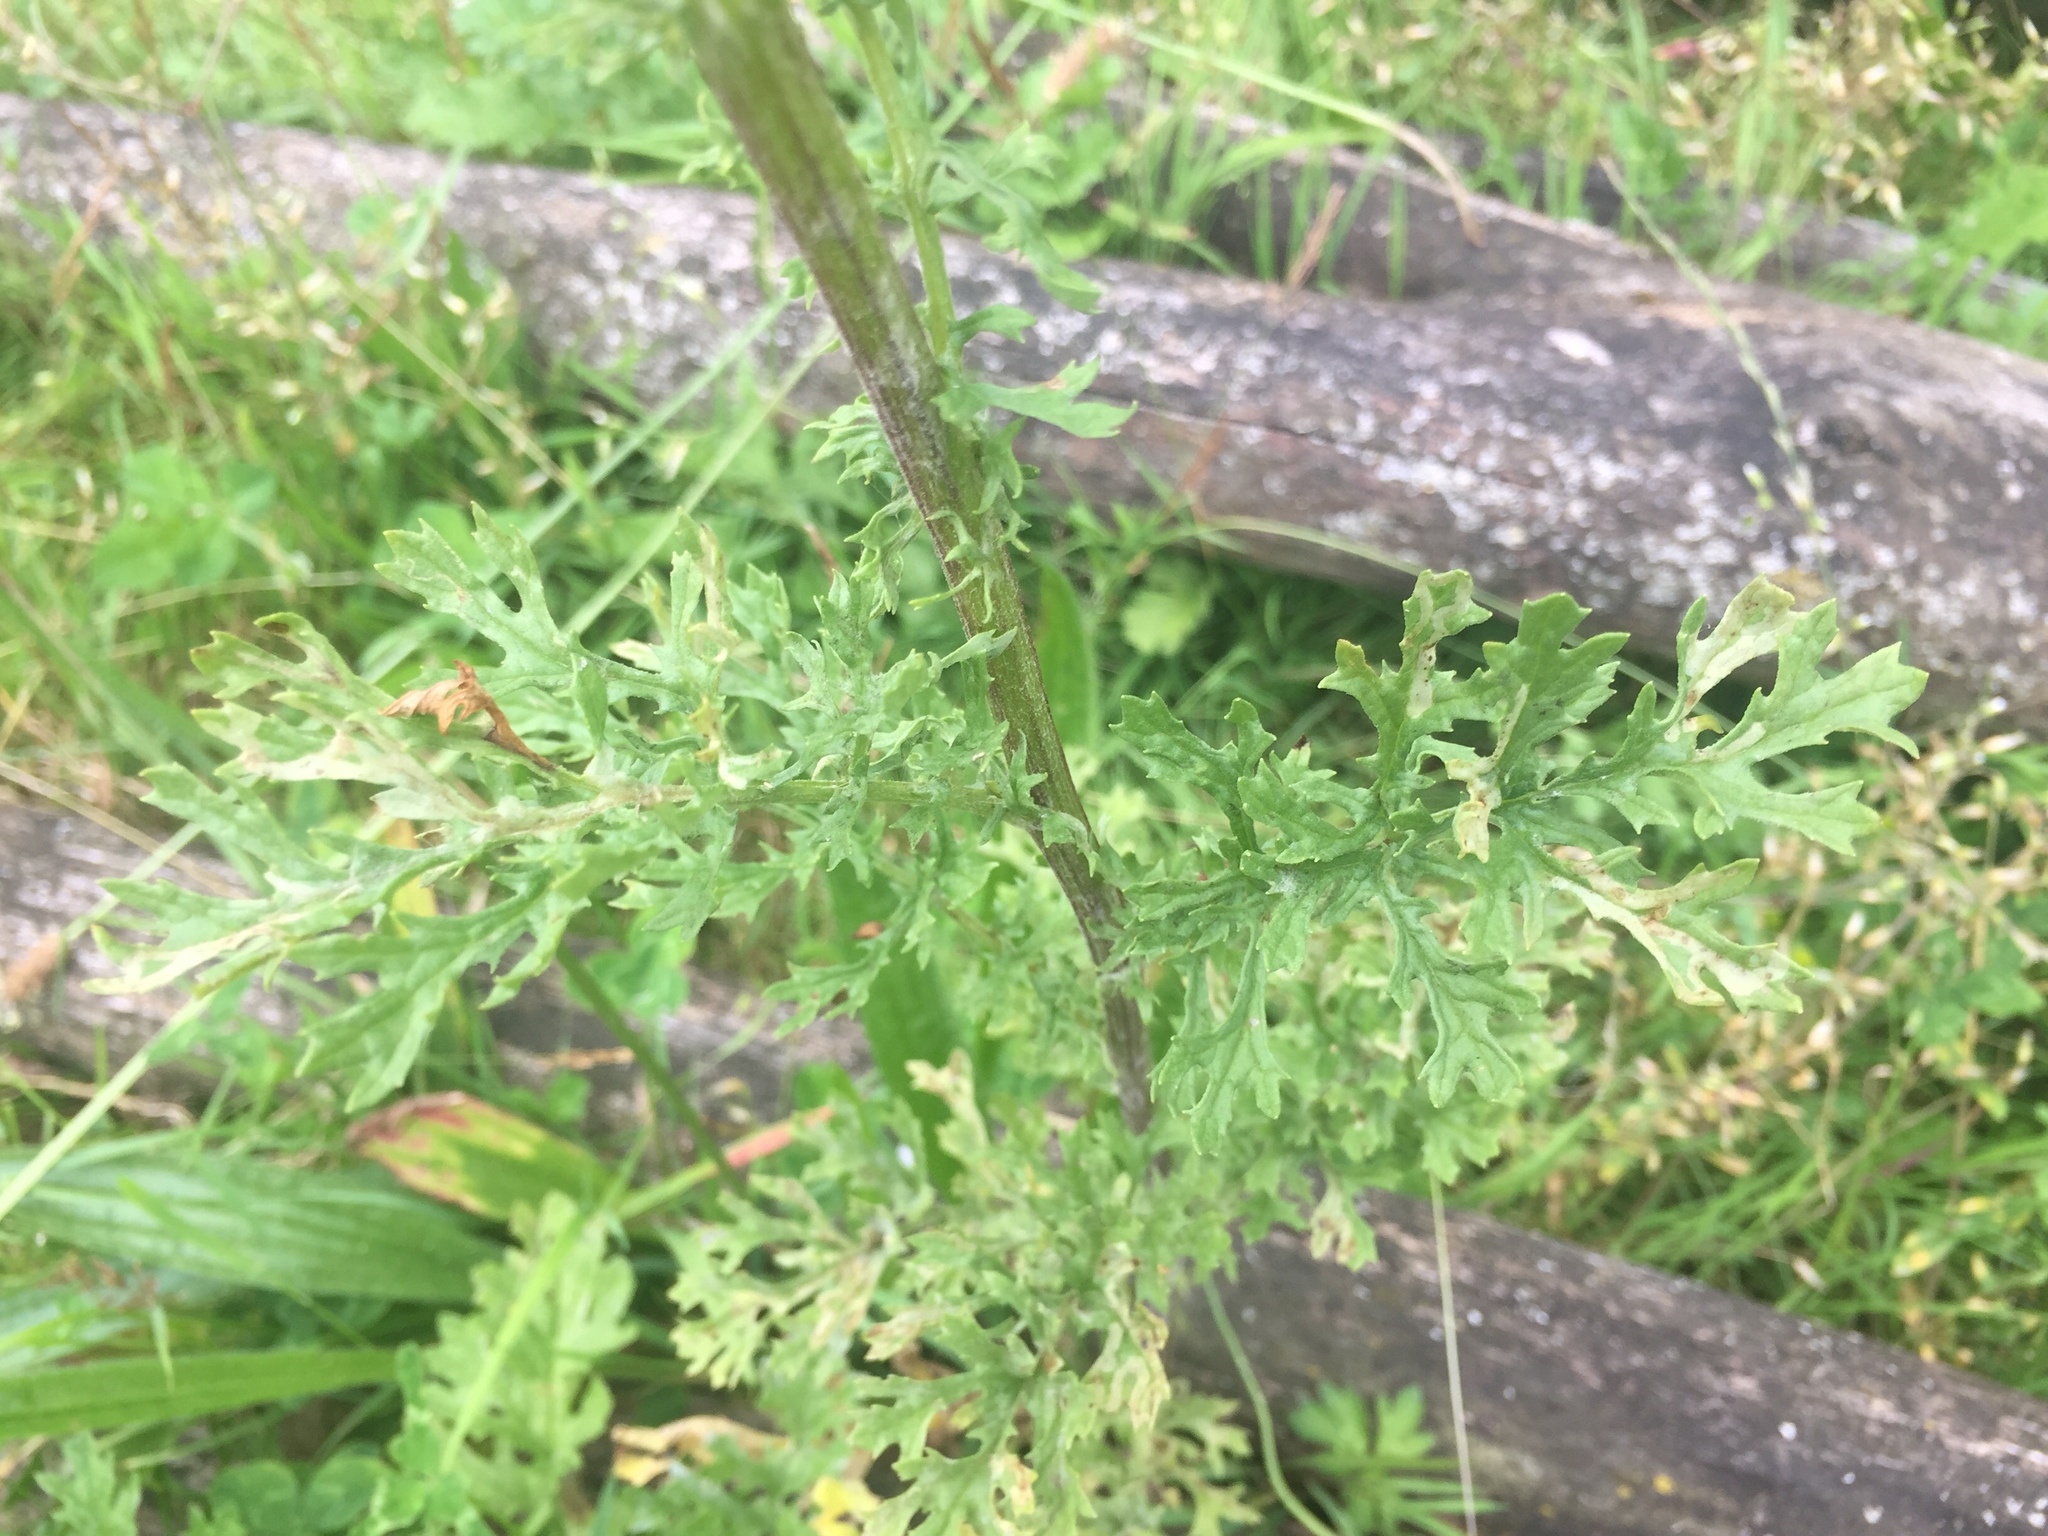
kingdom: Plantae
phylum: Tracheophyta
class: Magnoliopsida
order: Asterales
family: Asteraceae
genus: Jacobaea
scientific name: Jacobaea vulgaris
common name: Stinking willie
